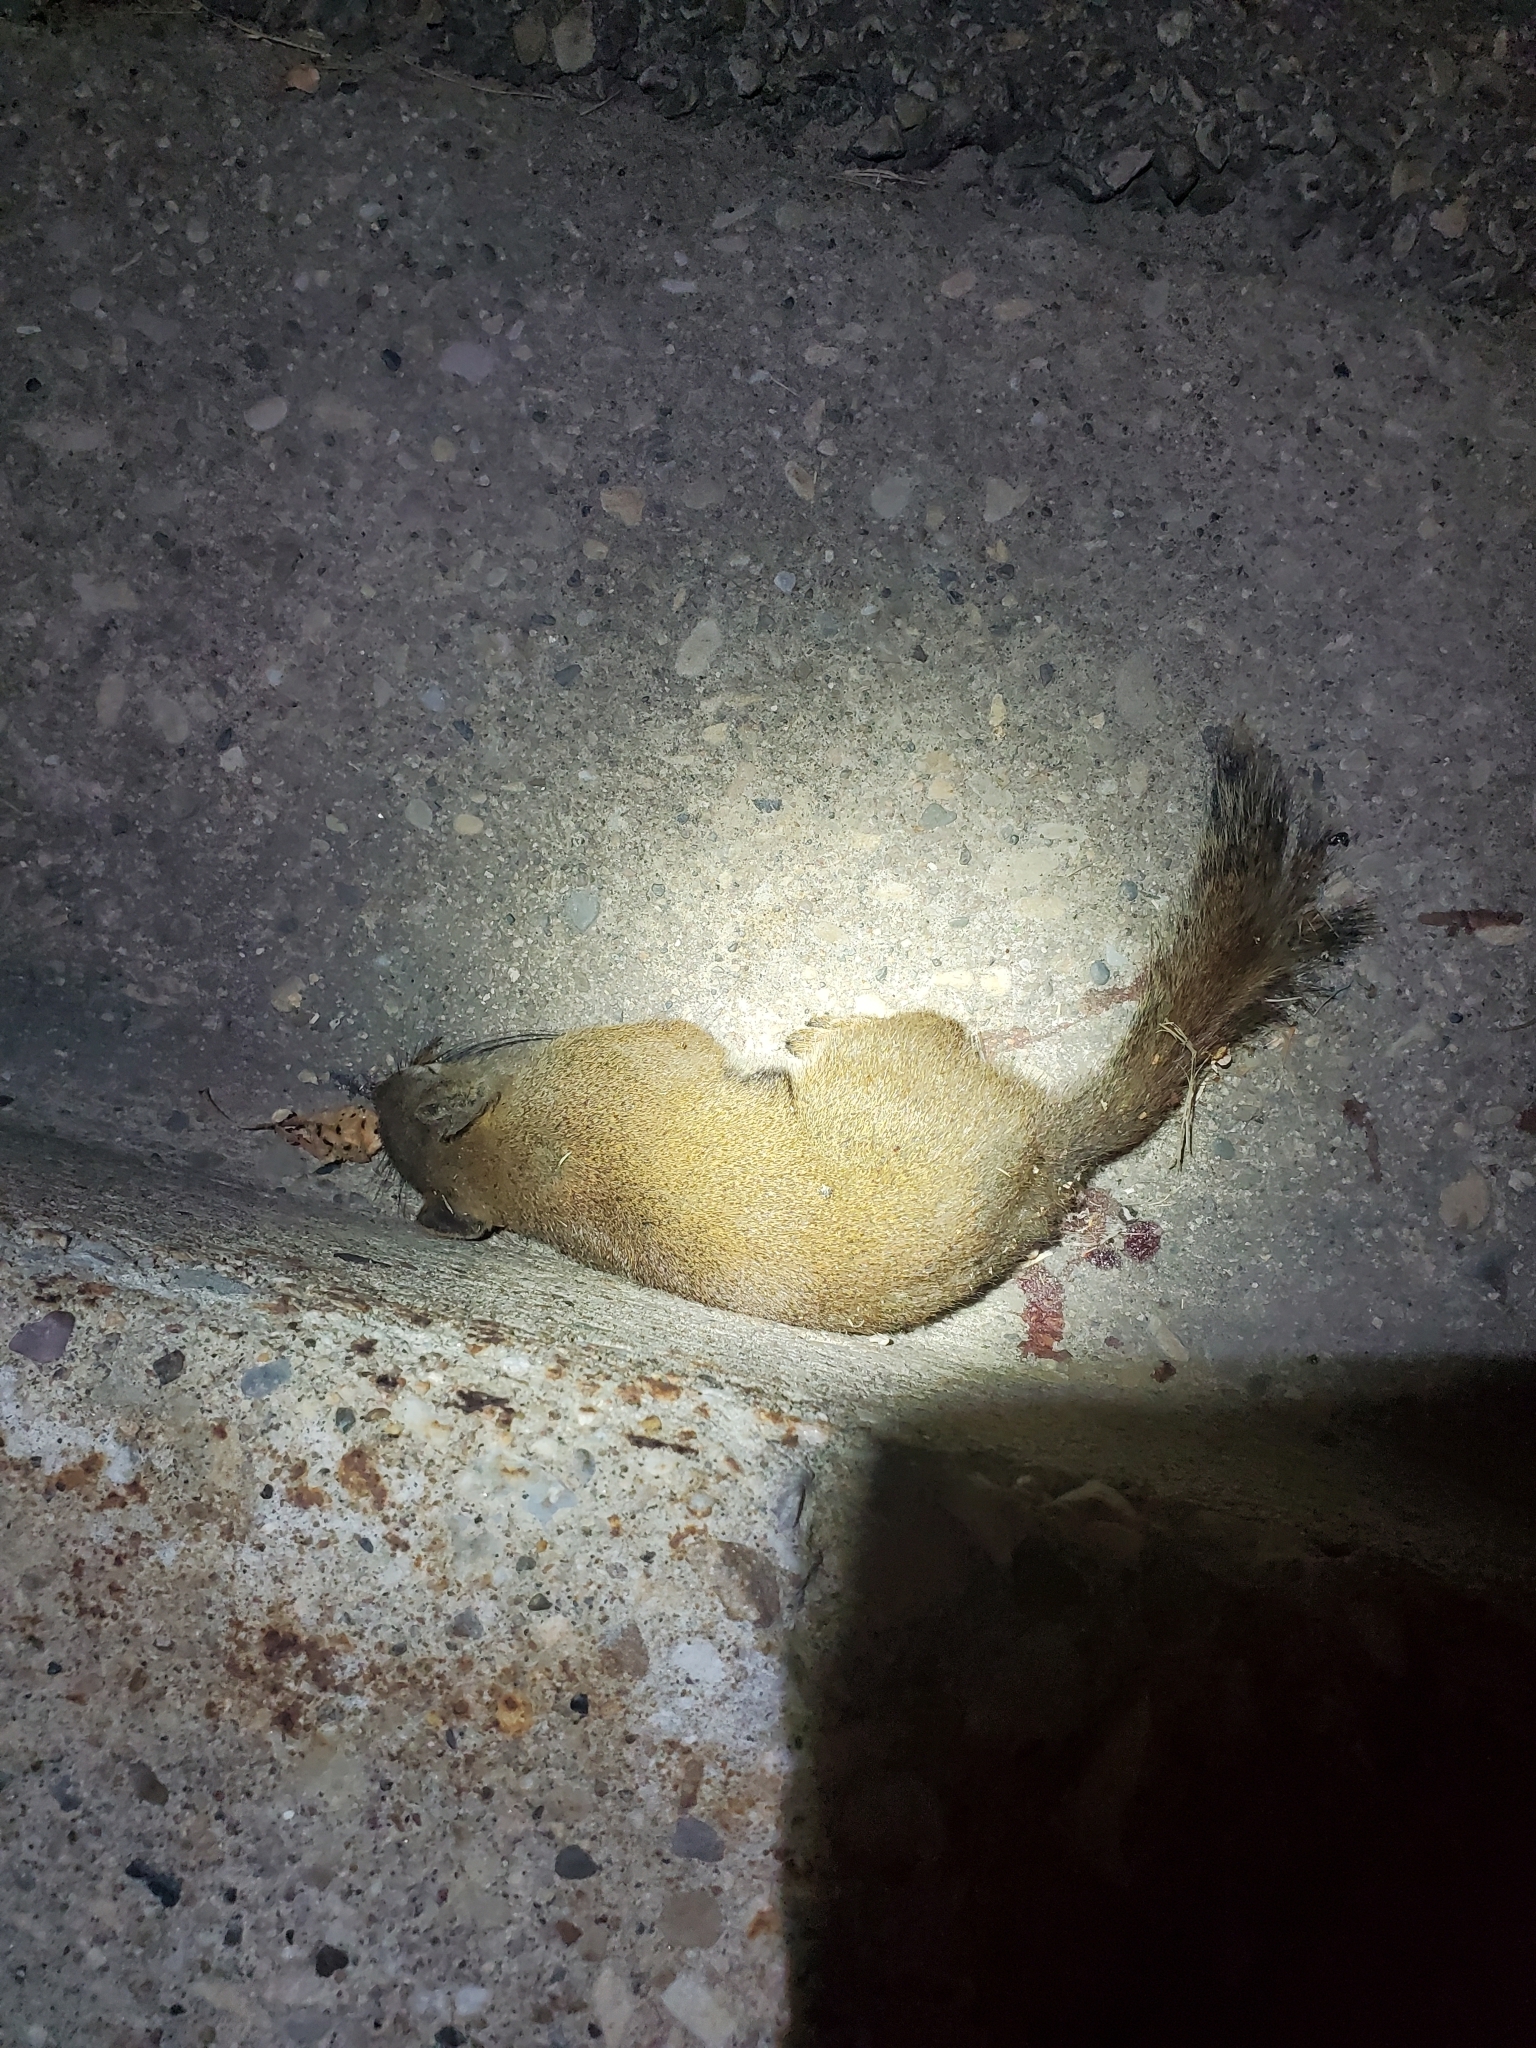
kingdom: Animalia
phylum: Chordata
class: Mammalia
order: Rodentia
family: Sciuridae
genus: Tamiasciurus
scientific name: Tamiasciurus hudsonicus
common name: Red squirrel
